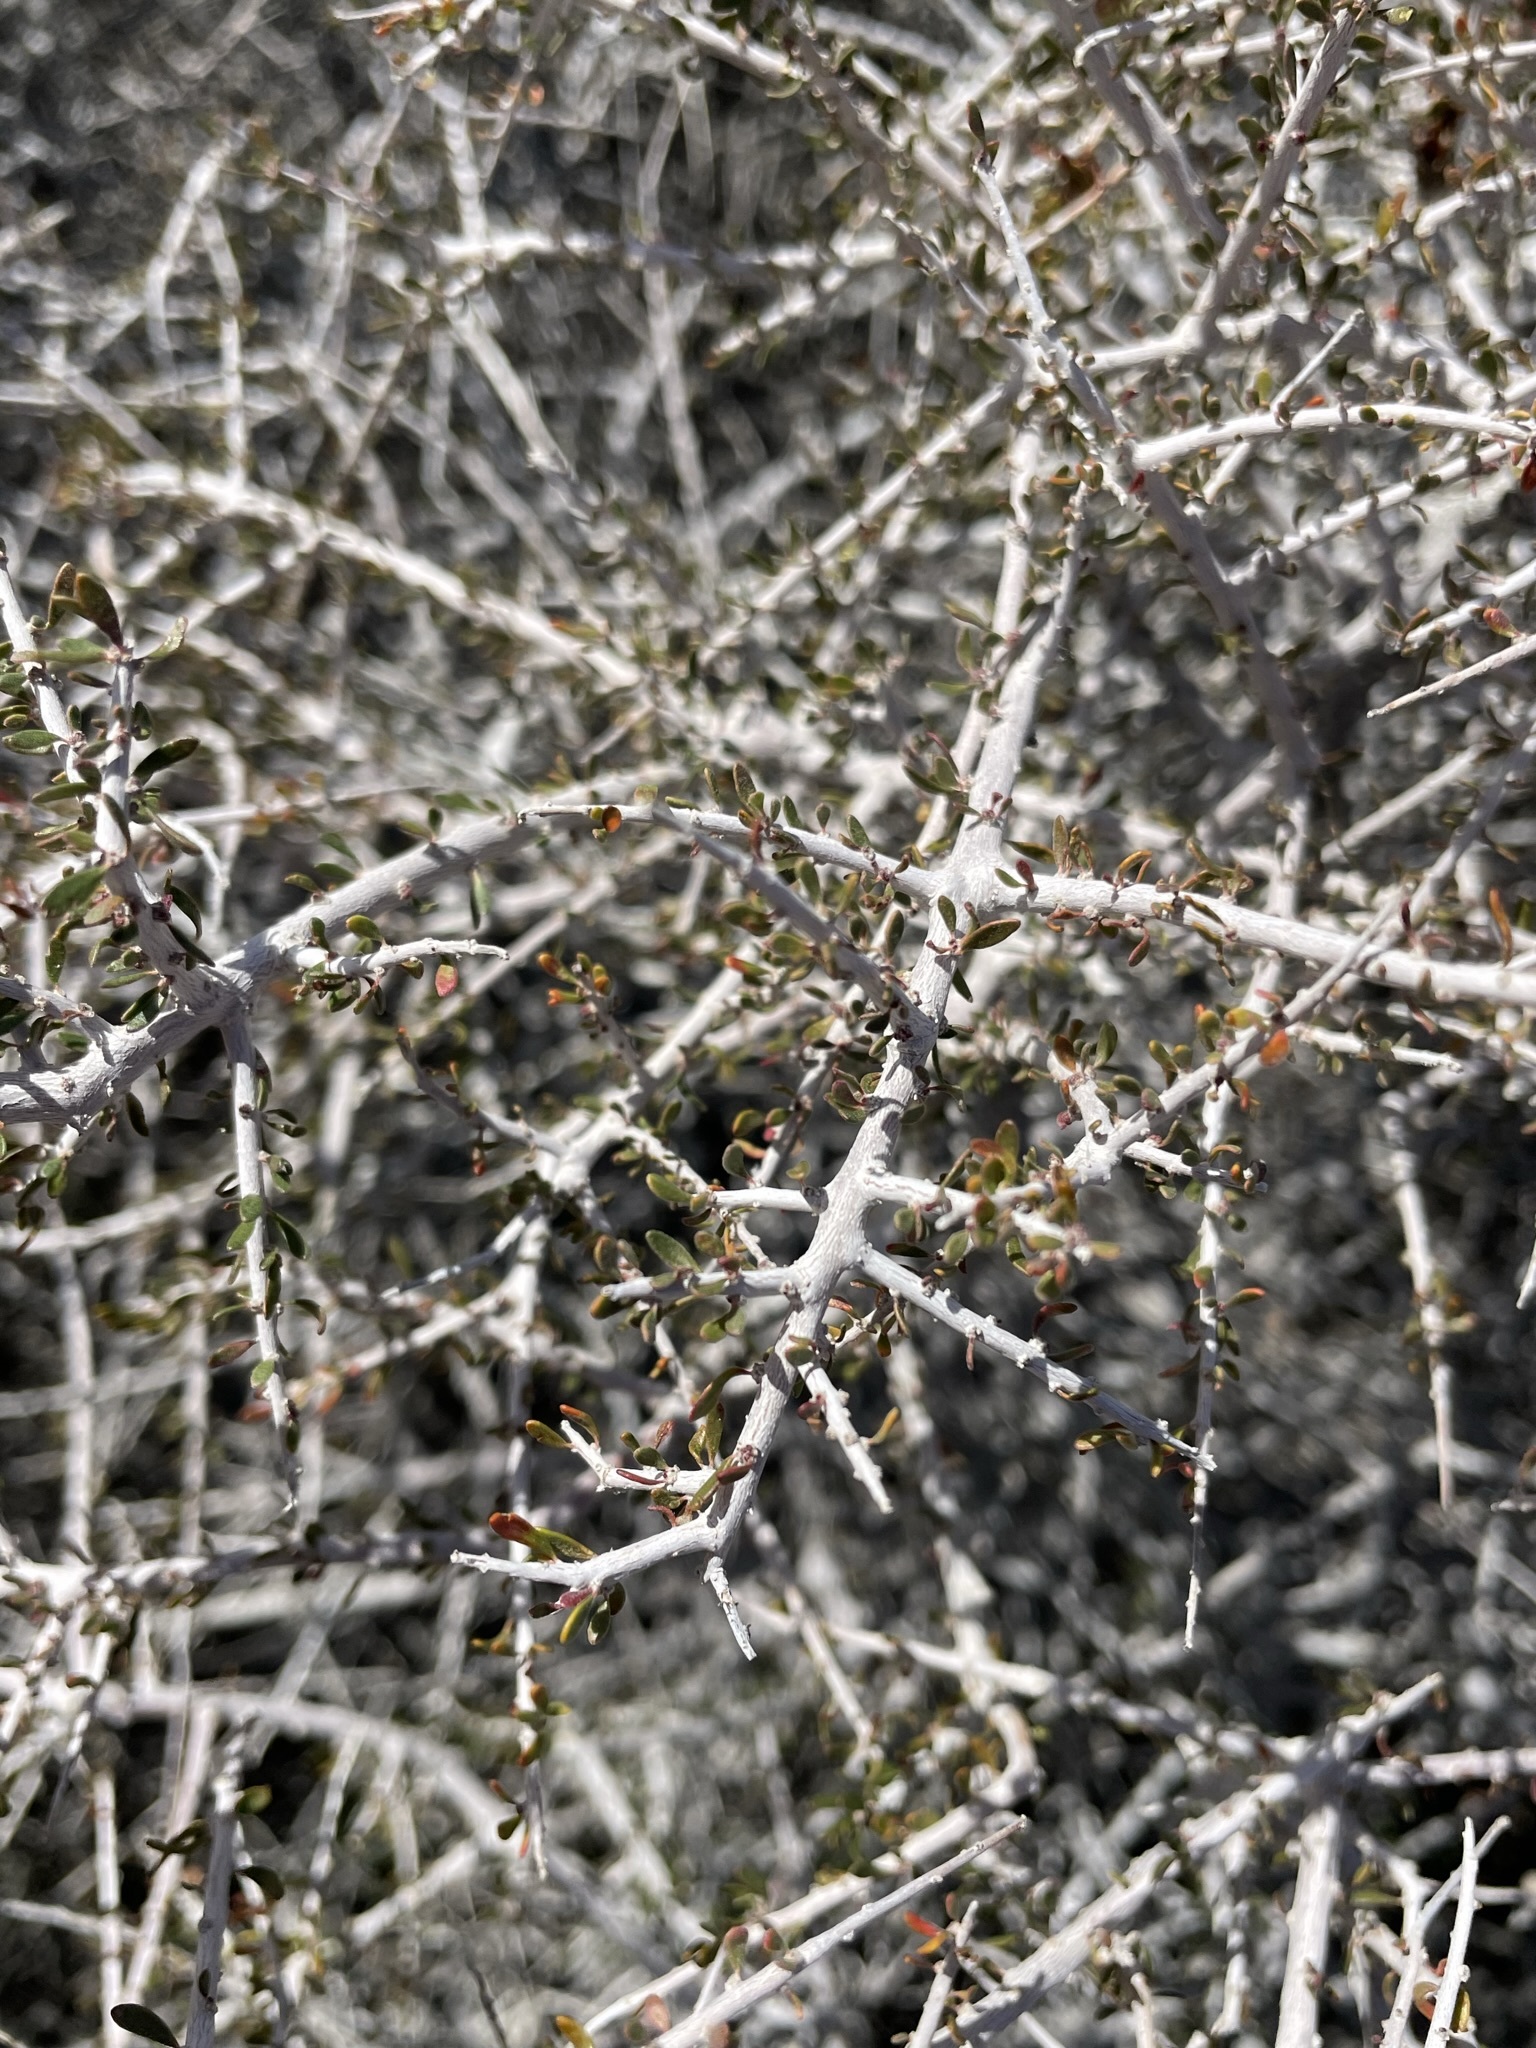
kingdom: Plantae
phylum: Tracheophyta
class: Magnoliopsida
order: Malpighiales
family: Picrodendraceae
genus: Tetracoccus
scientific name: Tetracoccus hallii
